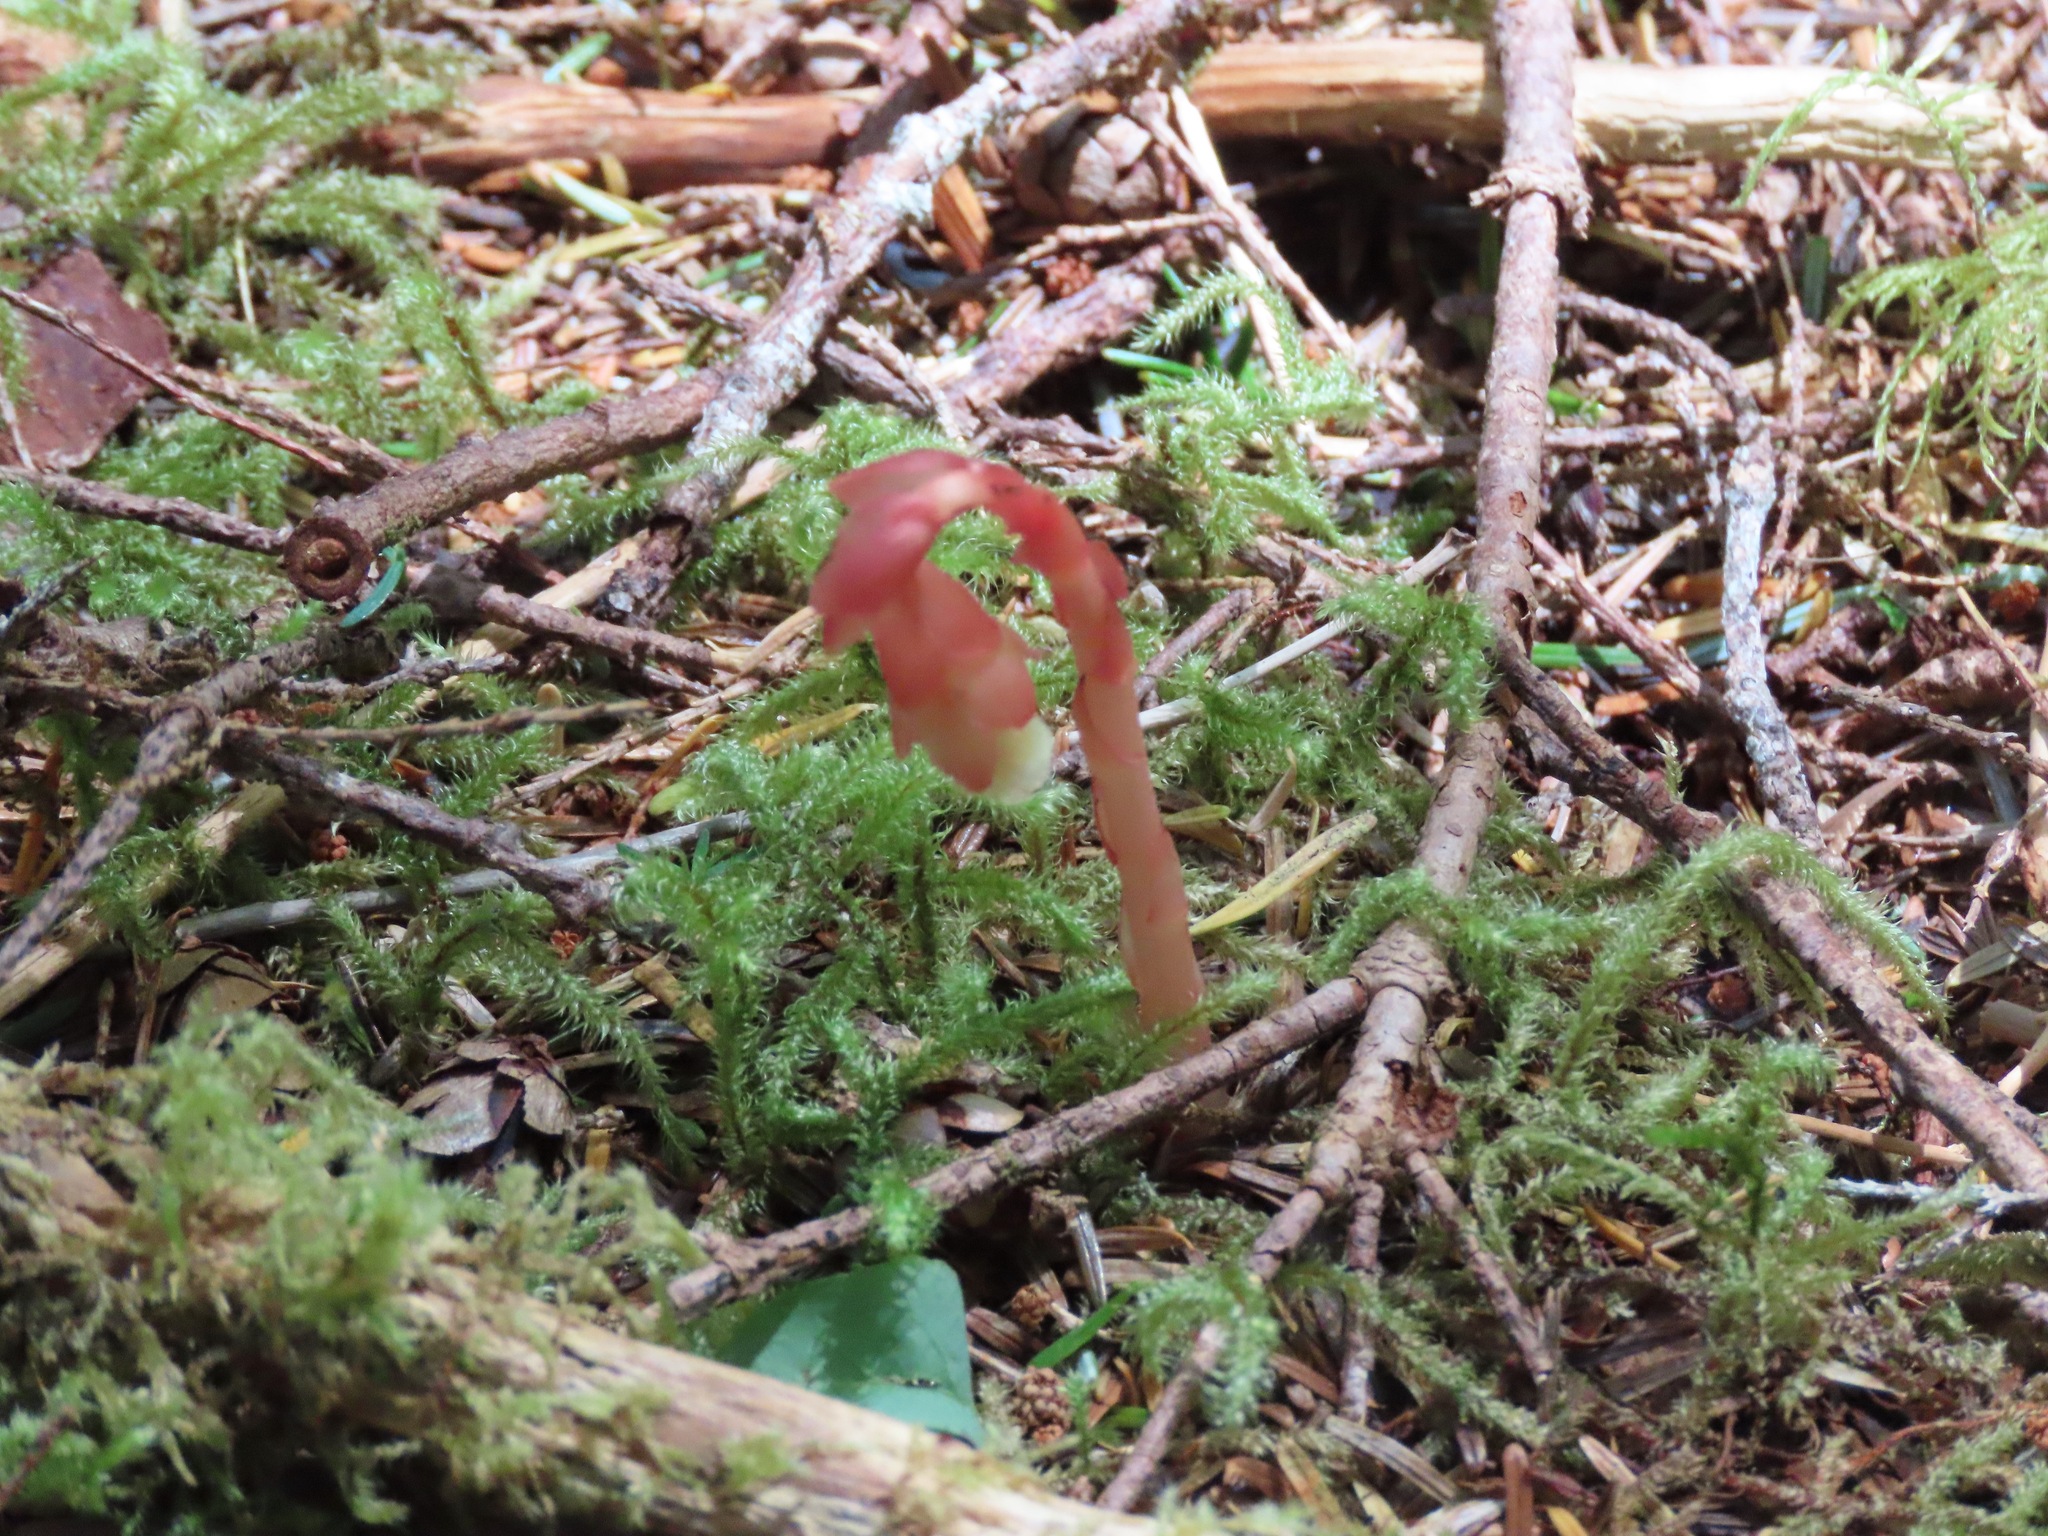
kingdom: Plantae
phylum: Tracheophyta
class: Magnoliopsida
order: Ericales
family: Ericaceae
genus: Hypopitys
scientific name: Hypopitys monotropa
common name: Yellow bird's-nest
